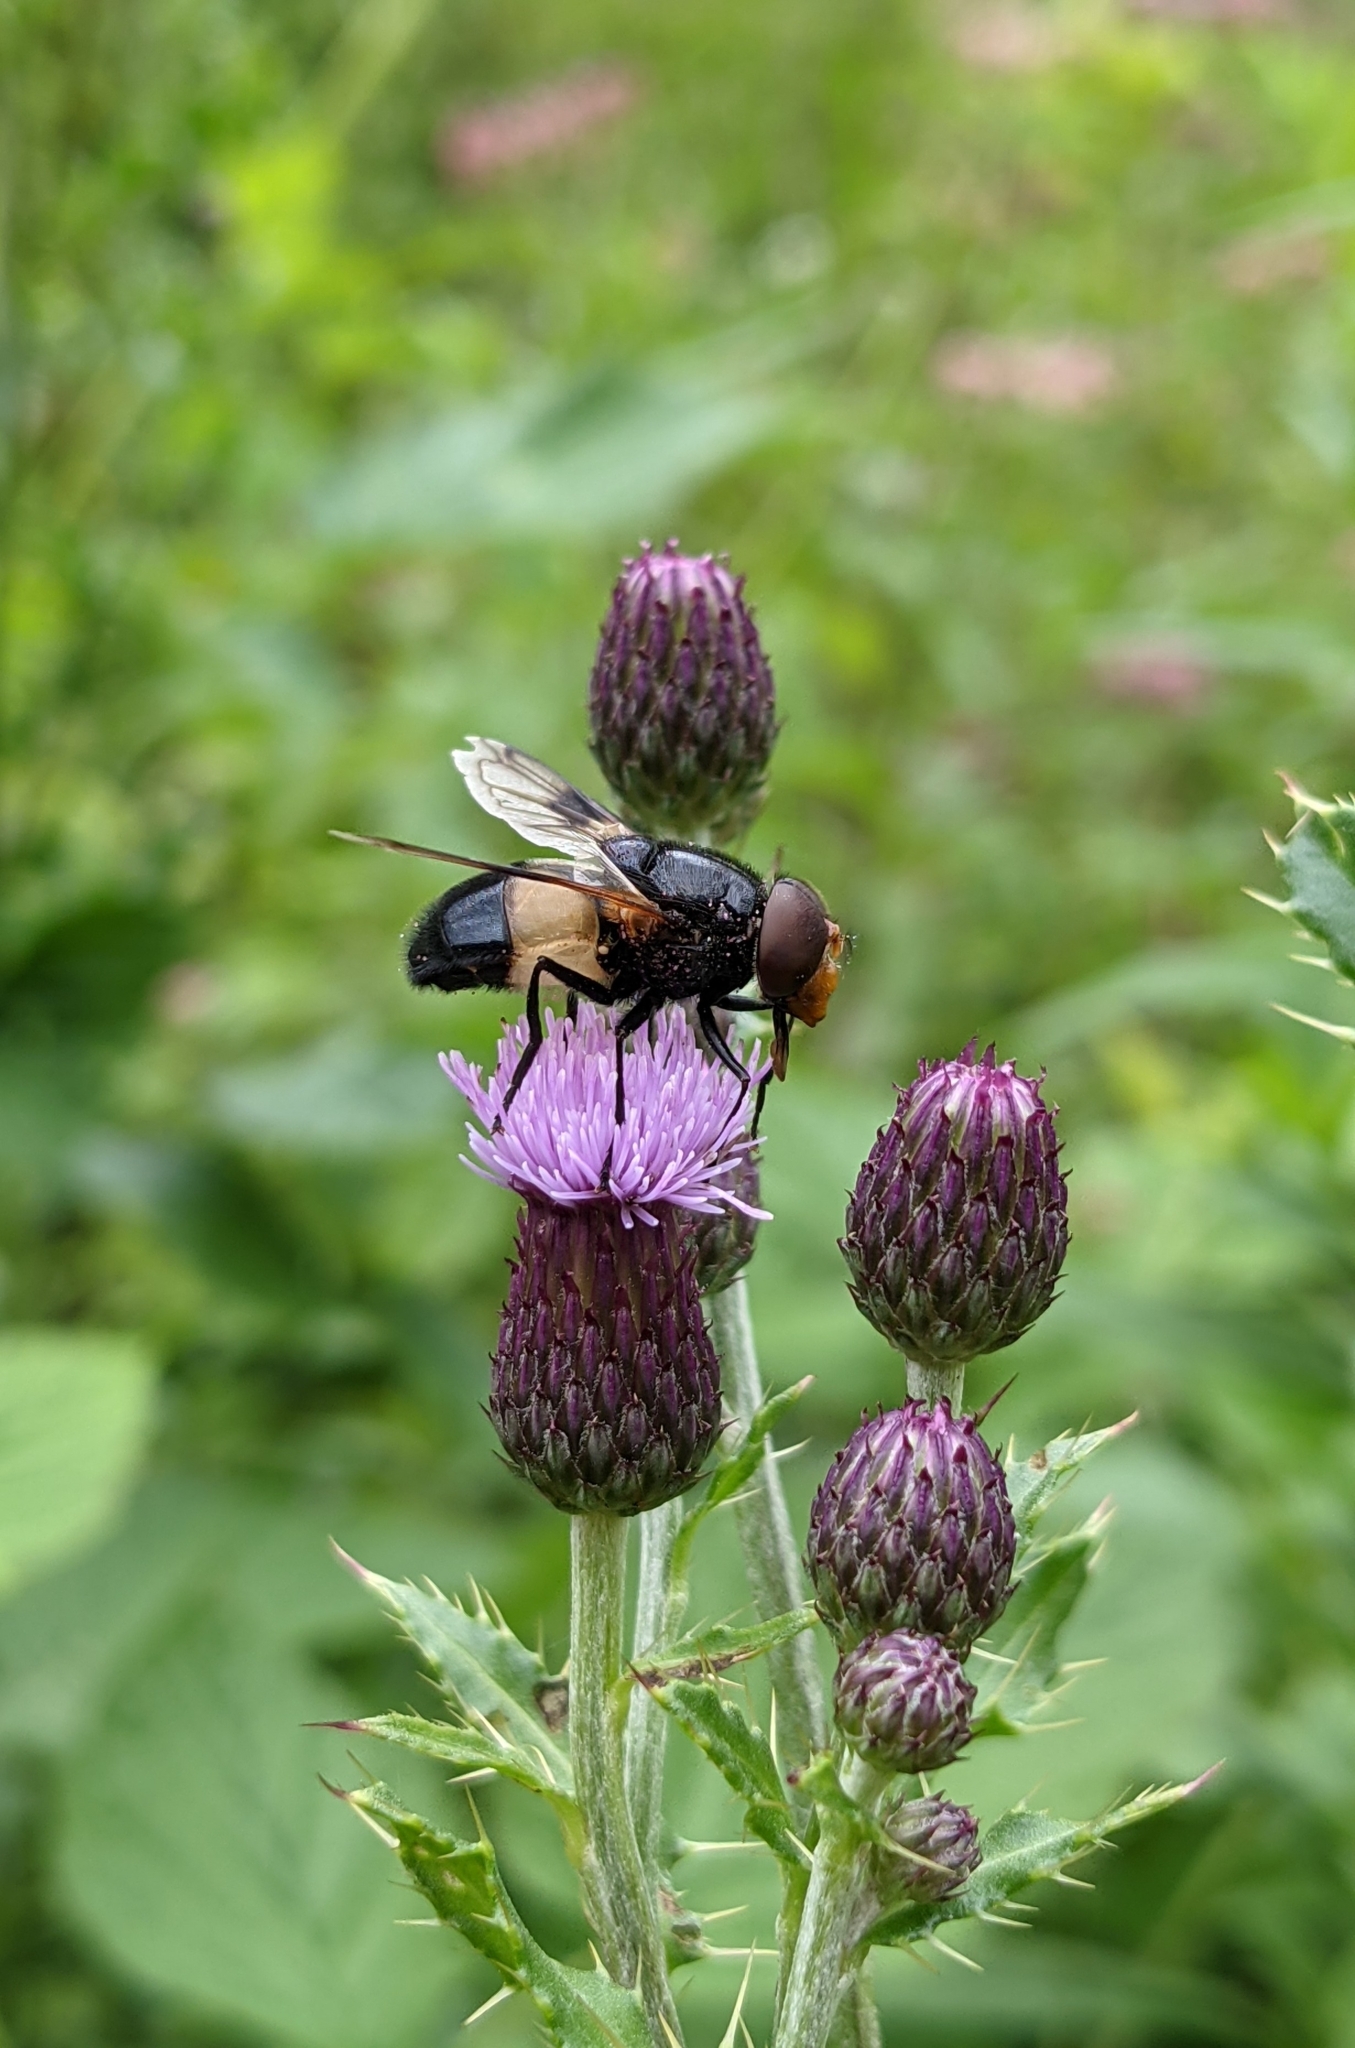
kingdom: Animalia
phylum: Arthropoda
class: Insecta
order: Diptera
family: Syrphidae
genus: Volucella
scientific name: Volucella pellucens
